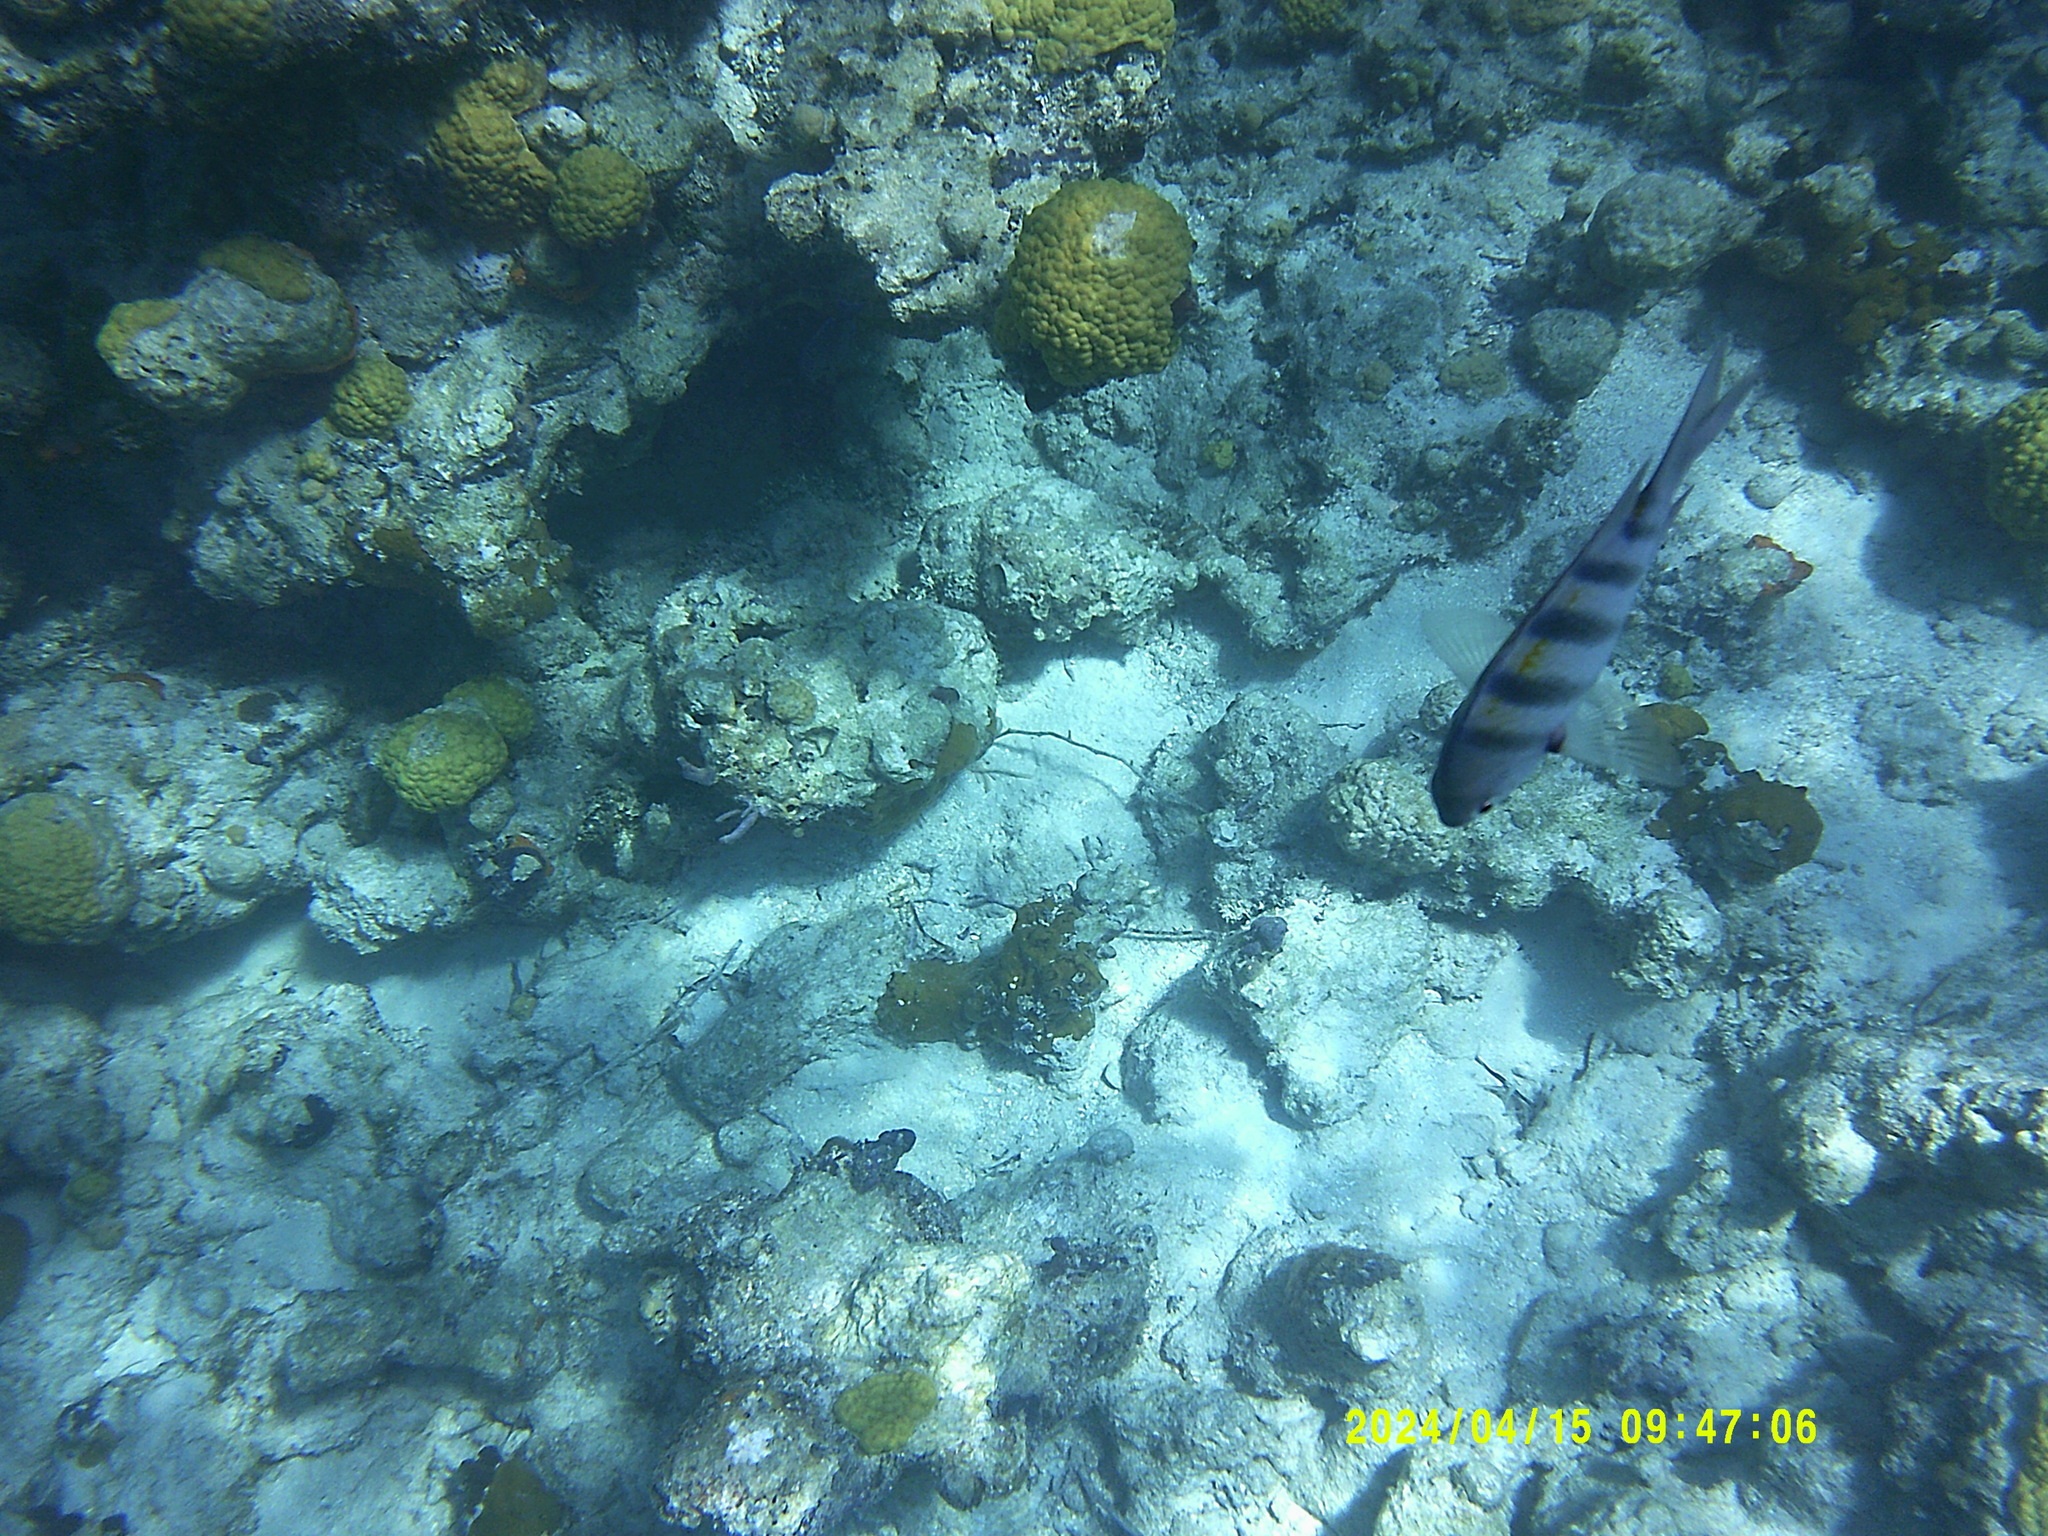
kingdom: Animalia
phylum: Chordata
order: Perciformes
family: Pomacentridae
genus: Abudefduf
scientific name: Abudefduf saxatilis
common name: Sergeant major
